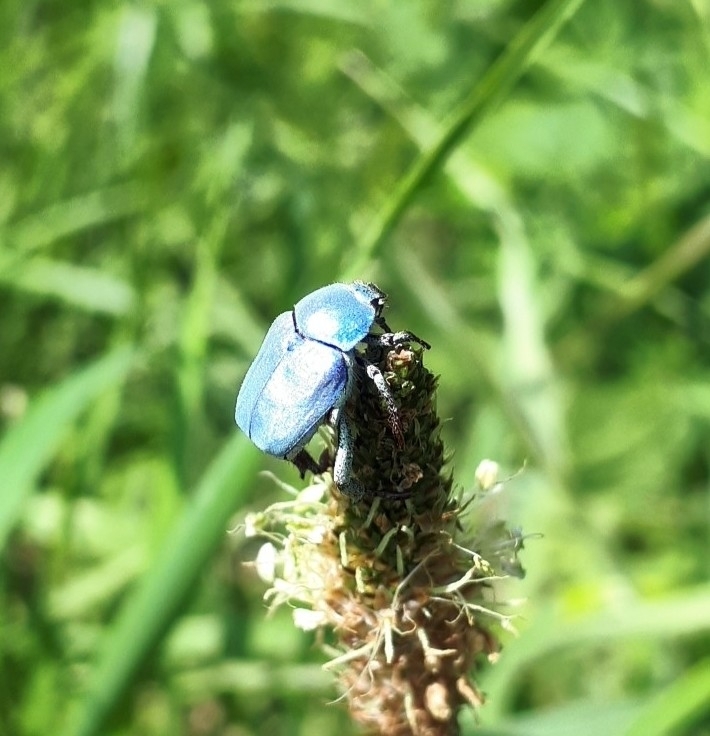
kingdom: Animalia
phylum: Arthropoda
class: Insecta
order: Coleoptera
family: Scarabaeidae
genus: Hoplia
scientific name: Hoplia coerulea
